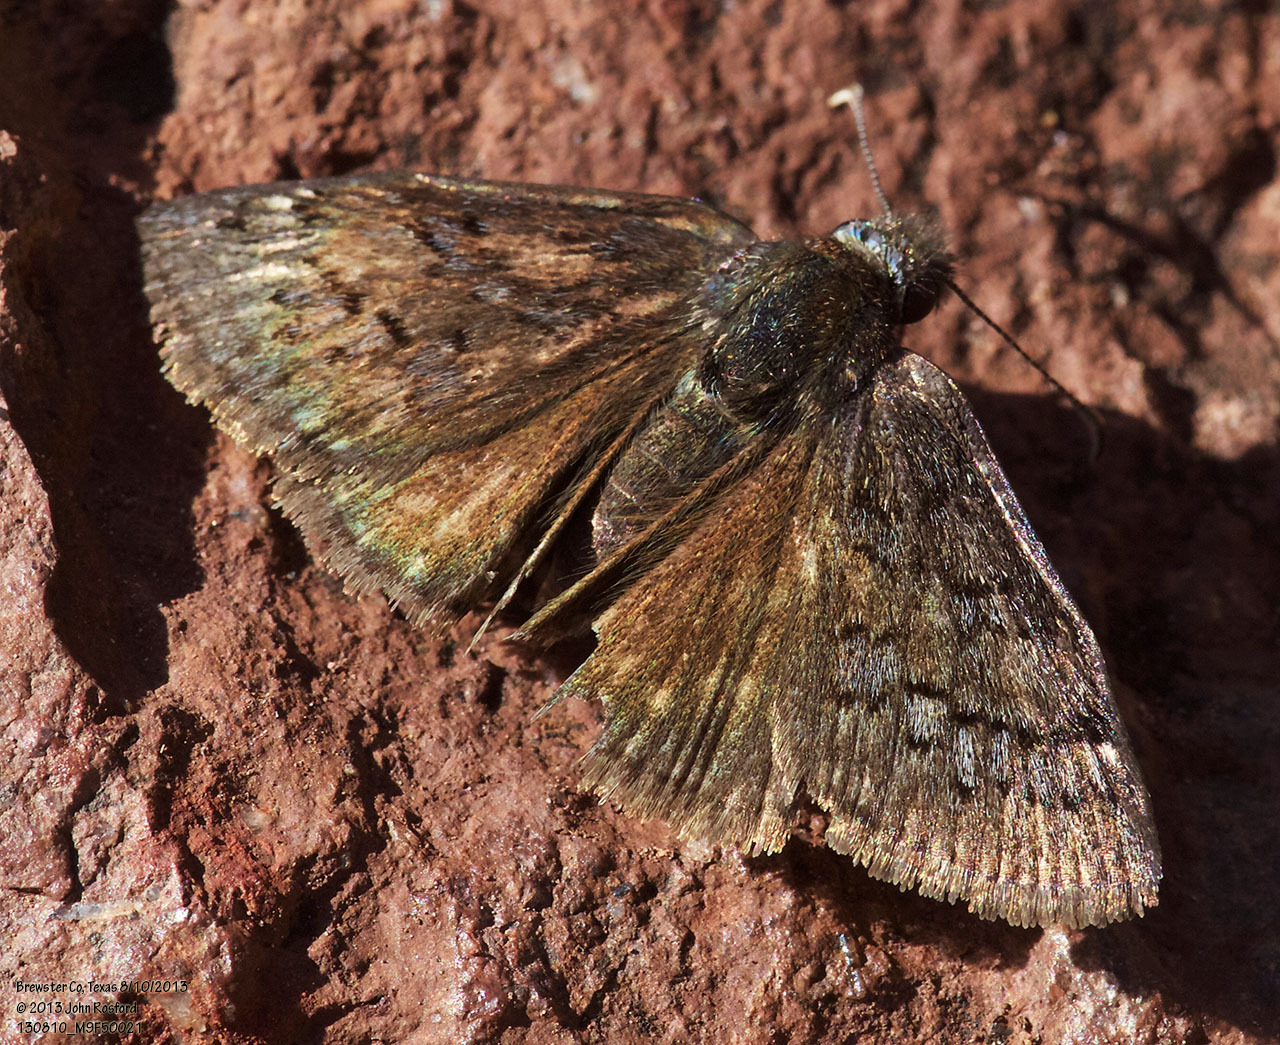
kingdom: Animalia
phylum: Arthropoda
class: Insecta
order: Lepidoptera
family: Hesperiidae
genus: Erynnis
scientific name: Erynnis brizo
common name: Sleepy duskywing
